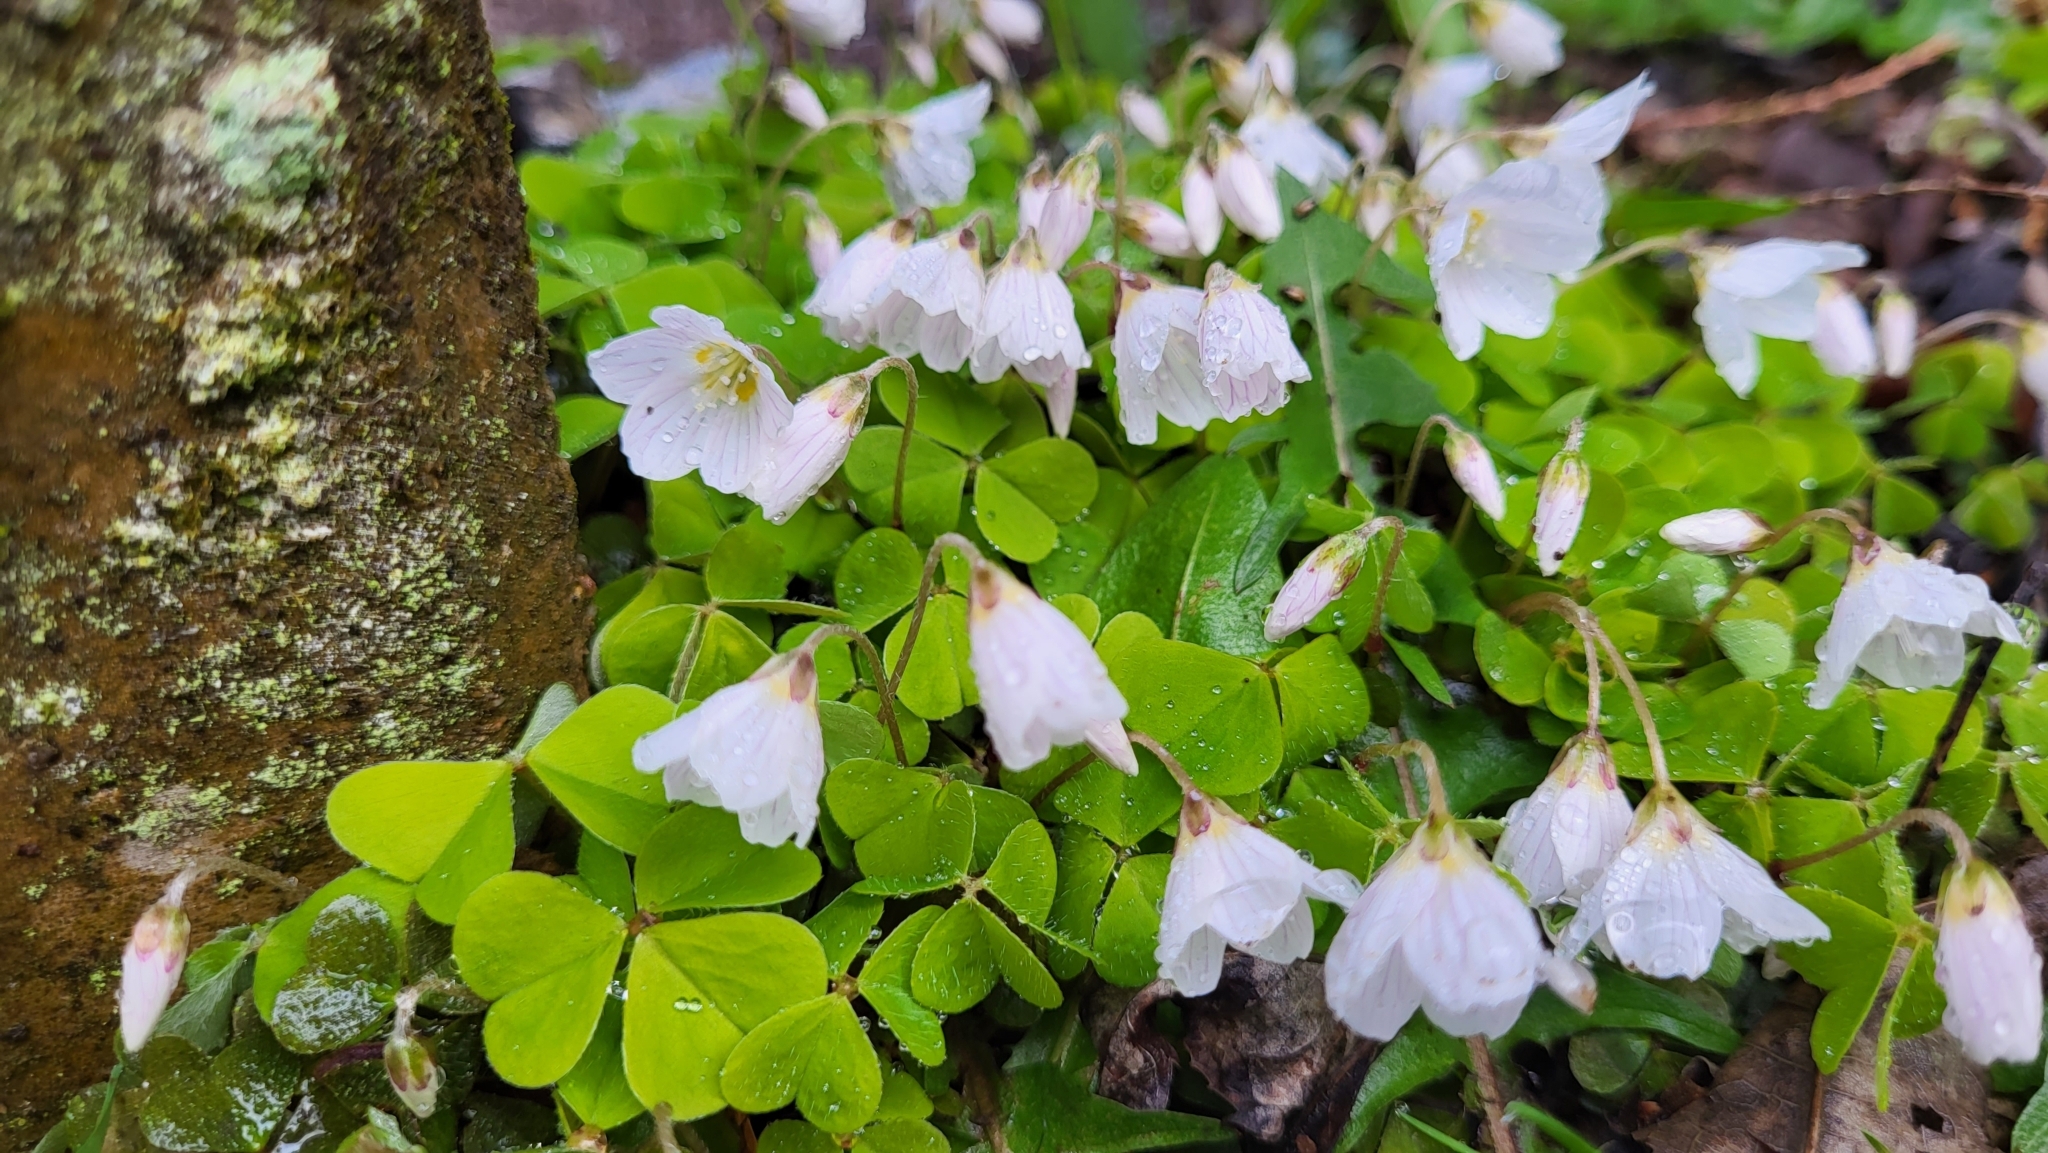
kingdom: Plantae
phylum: Tracheophyta
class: Magnoliopsida
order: Oxalidales
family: Oxalidaceae
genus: Oxalis
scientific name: Oxalis acetosella
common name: Wood-sorrel
